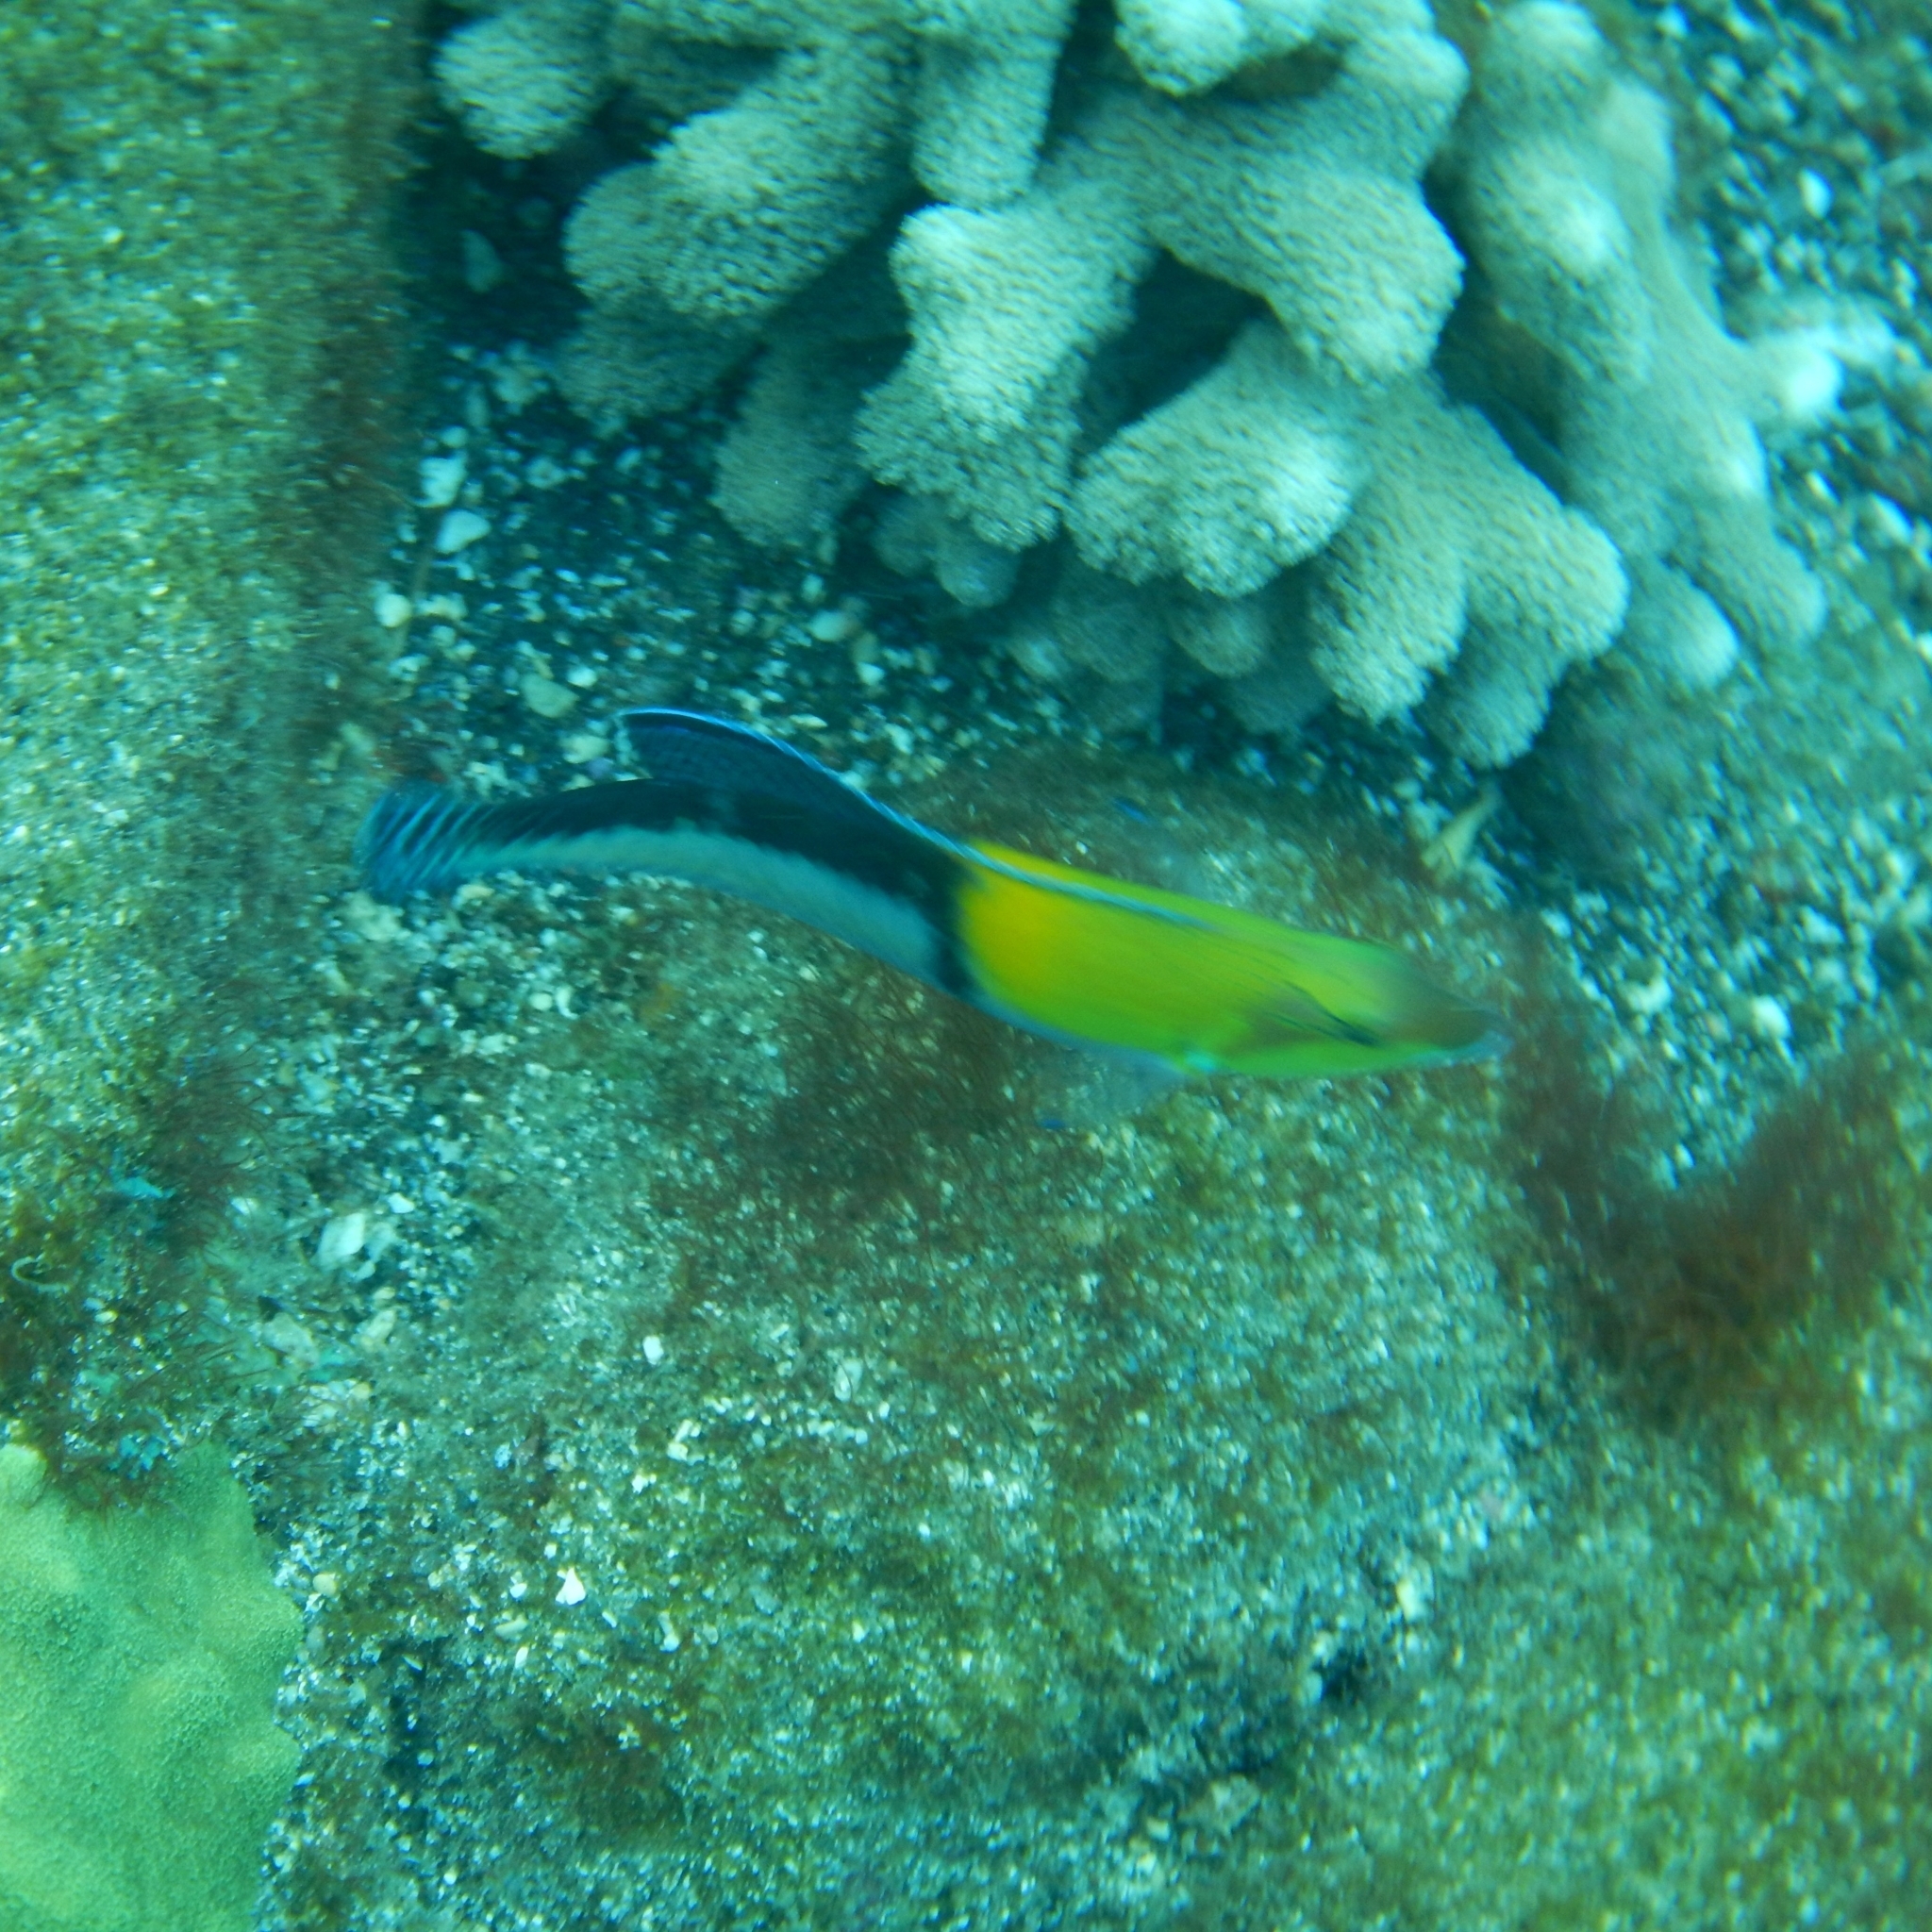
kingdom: Animalia
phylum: Chordata
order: Perciformes
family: Labridae
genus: Halichoeres
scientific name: Halichoeres garnoti
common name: Yellowhead wrasse
